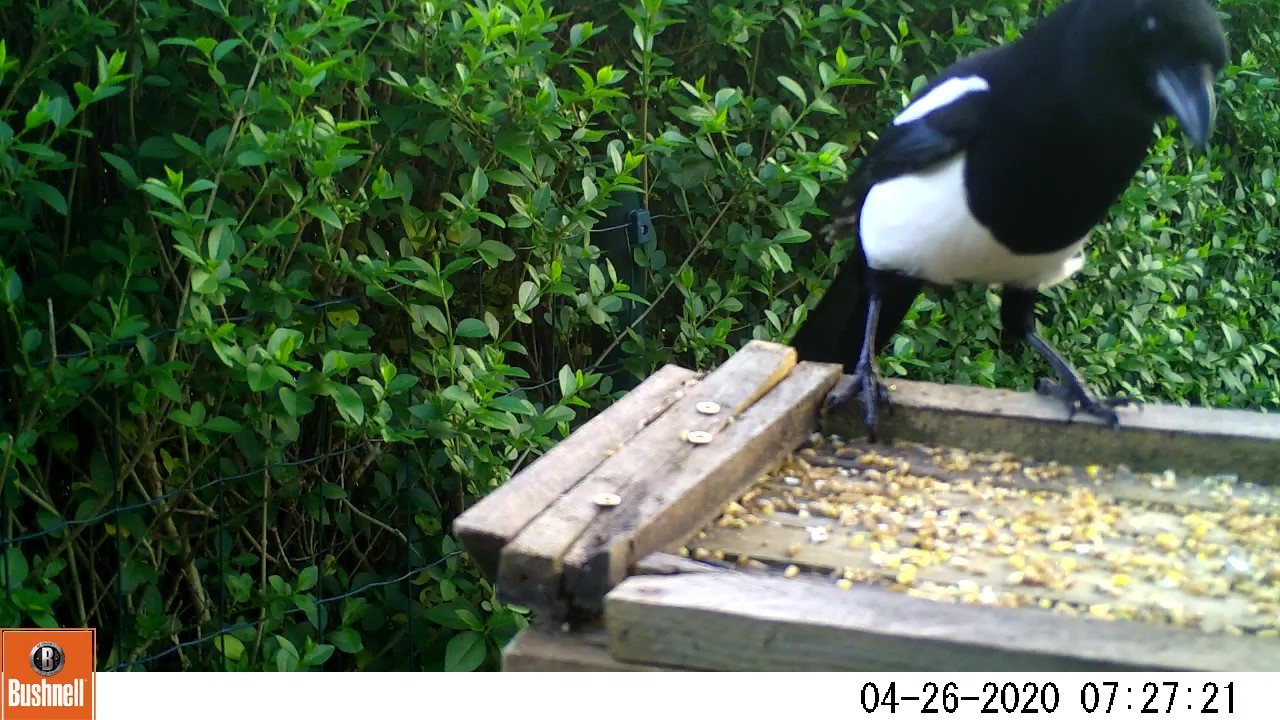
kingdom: Animalia
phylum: Chordata
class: Aves
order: Passeriformes
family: Corvidae
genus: Pica
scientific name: Pica pica
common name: Eurasian magpie
